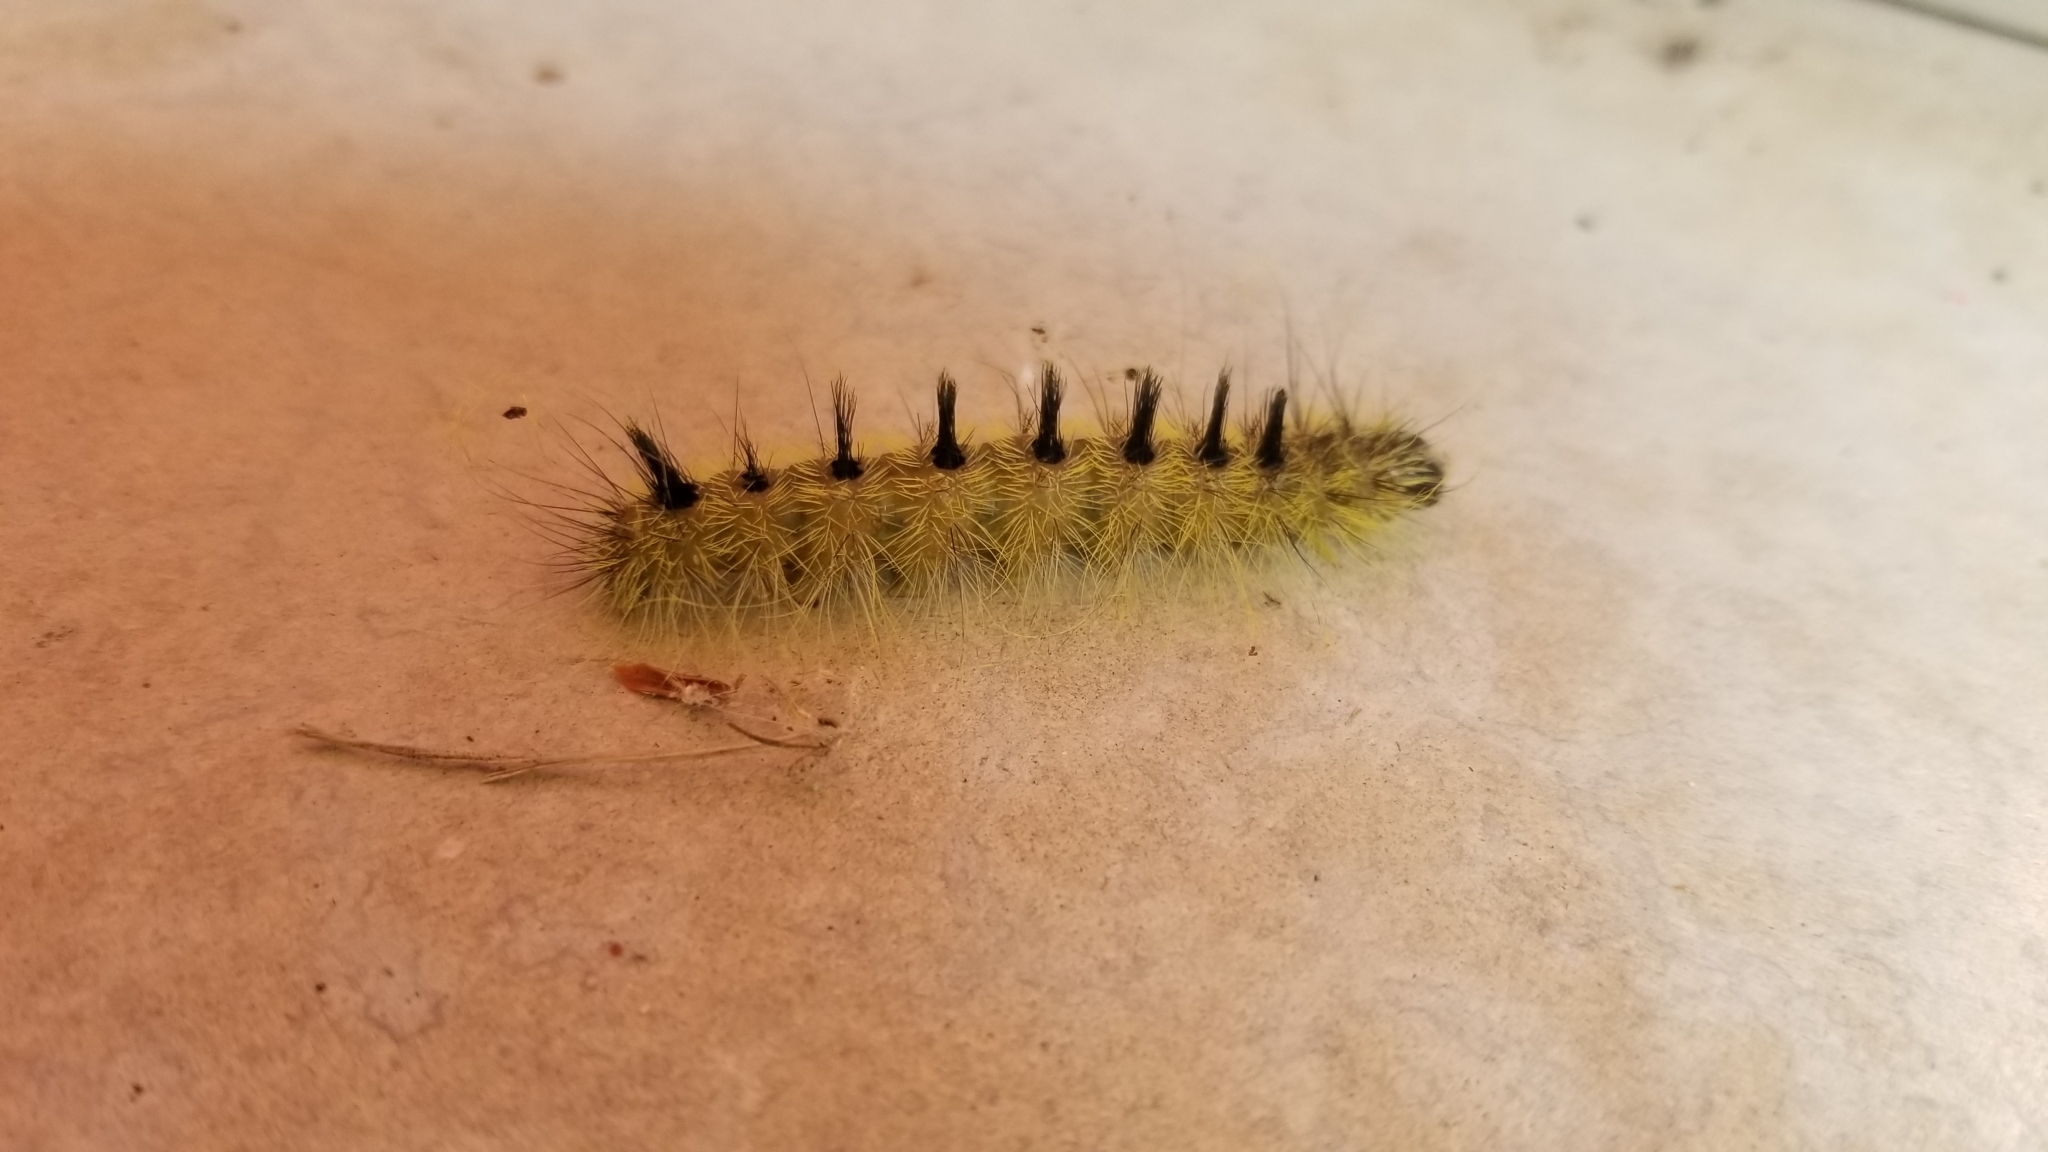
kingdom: Animalia
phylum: Arthropoda
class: Insecta
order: Lepidoptera
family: Noctuidae
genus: Acronicta
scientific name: Acronicta rubricoma
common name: Hackberry dagger
